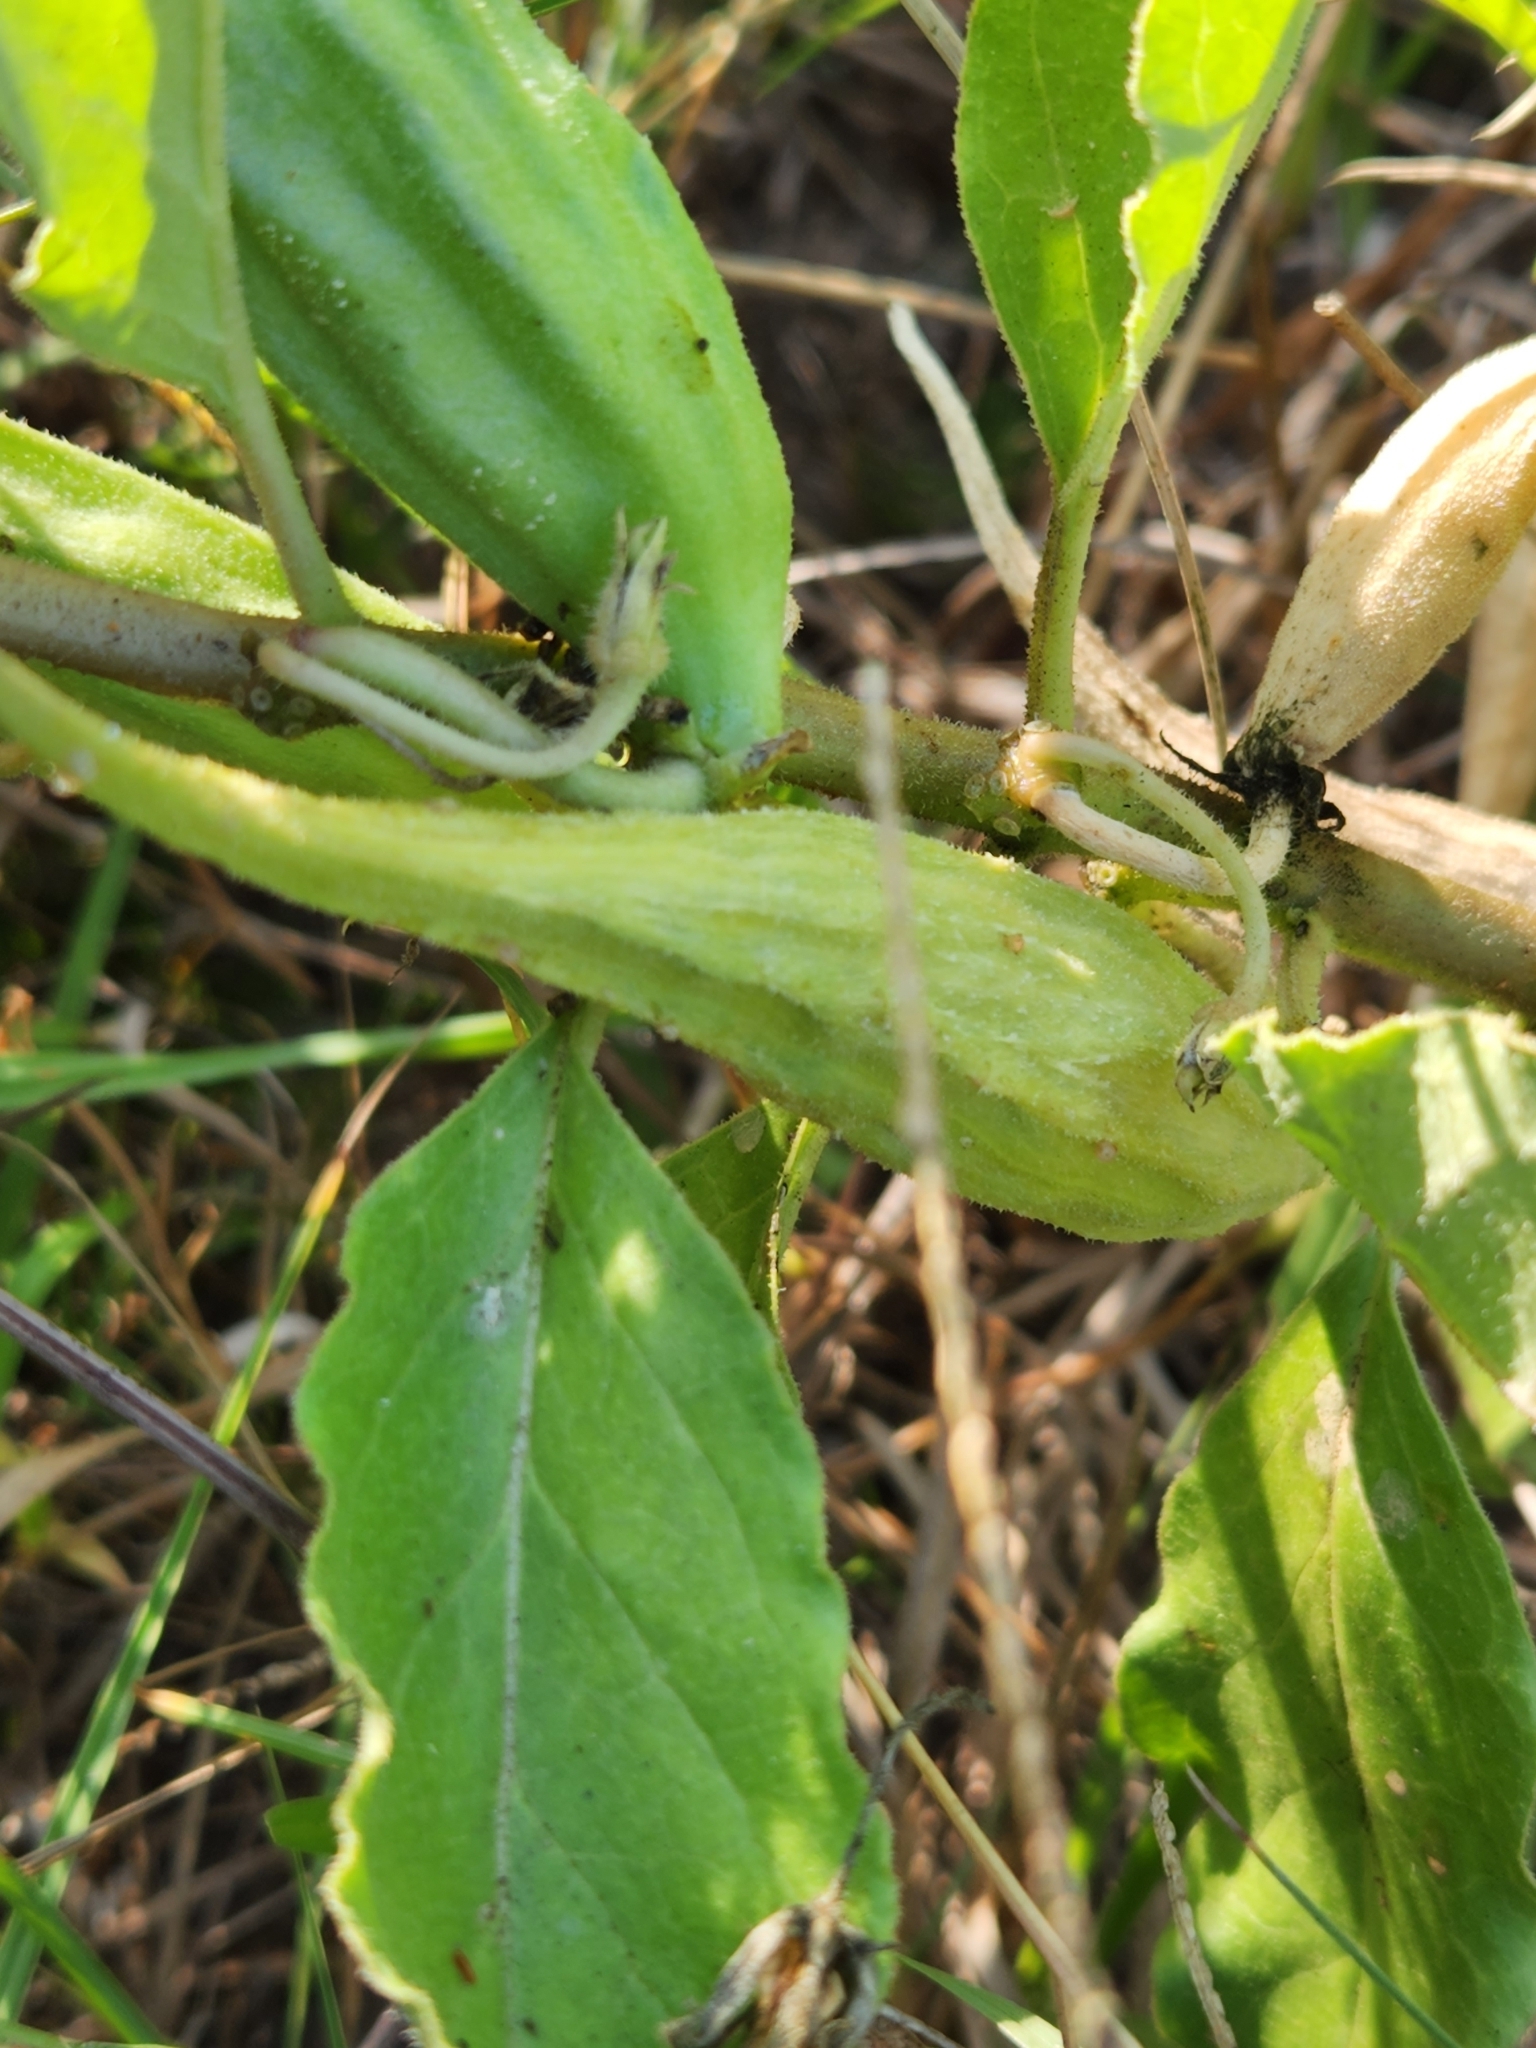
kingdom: Plantae
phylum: Tracheophyta
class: Magnoliopsida
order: Gentianales
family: Apocynaceae
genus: Asclepias
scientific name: Asclepias oenotheroides
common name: Zizotes milkweed
